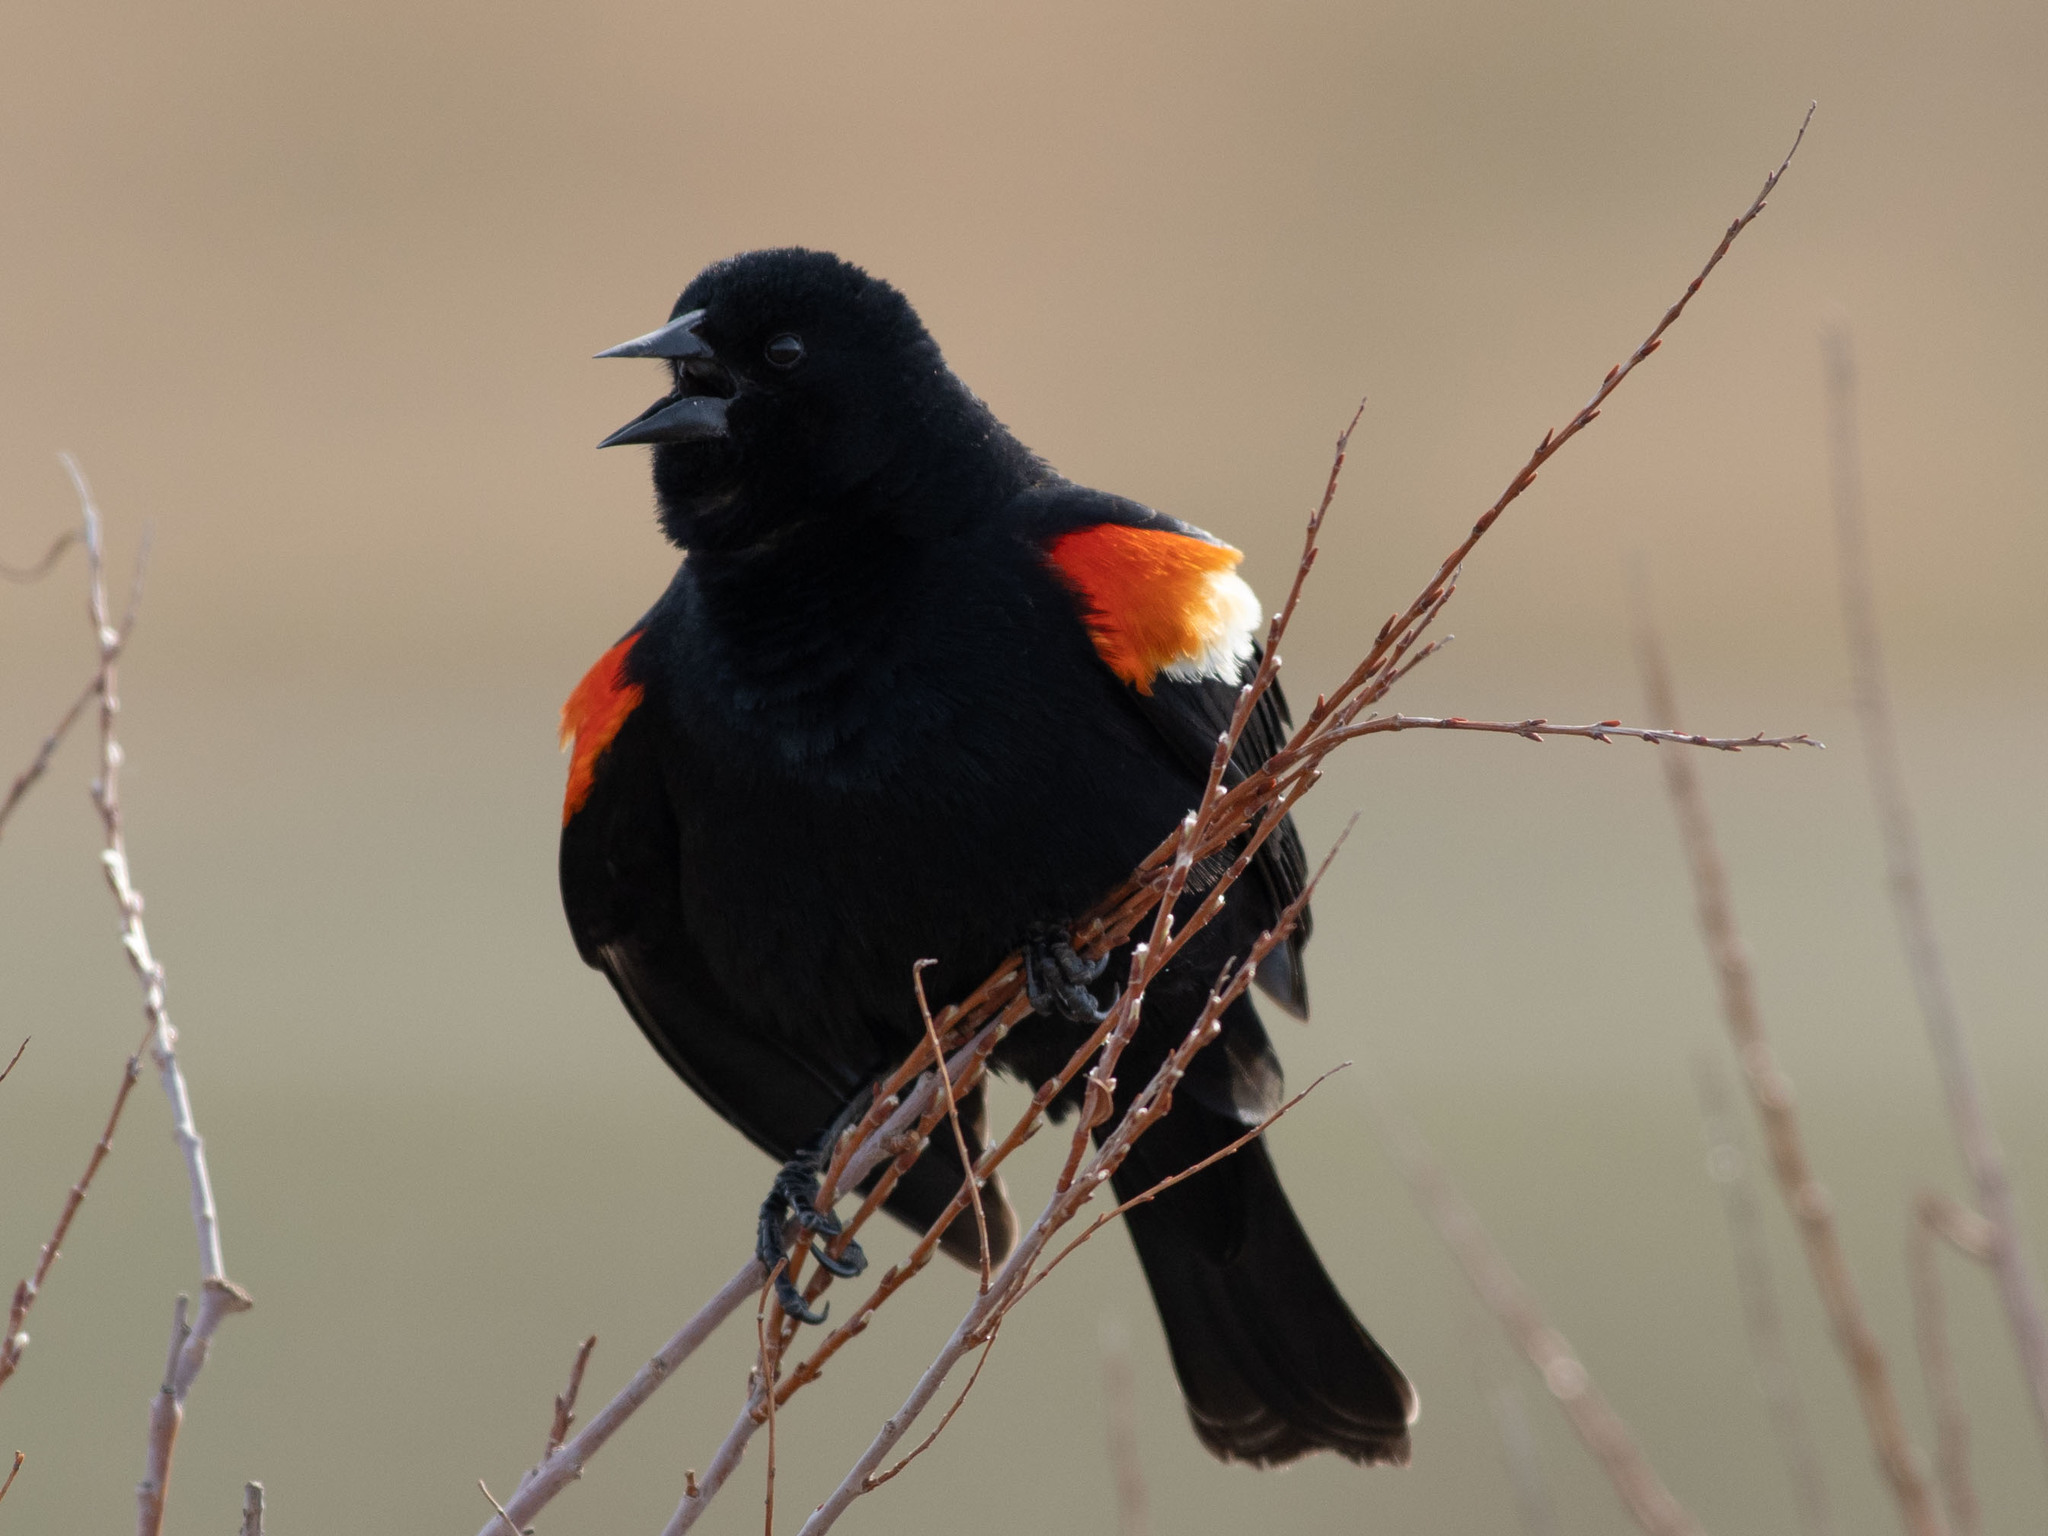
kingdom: Animalia
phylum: Chordata
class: Aves
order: Passeriformes
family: Icteridae
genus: Agelaius
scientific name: Agelaius phoeniceus
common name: Red-winged blackbird
